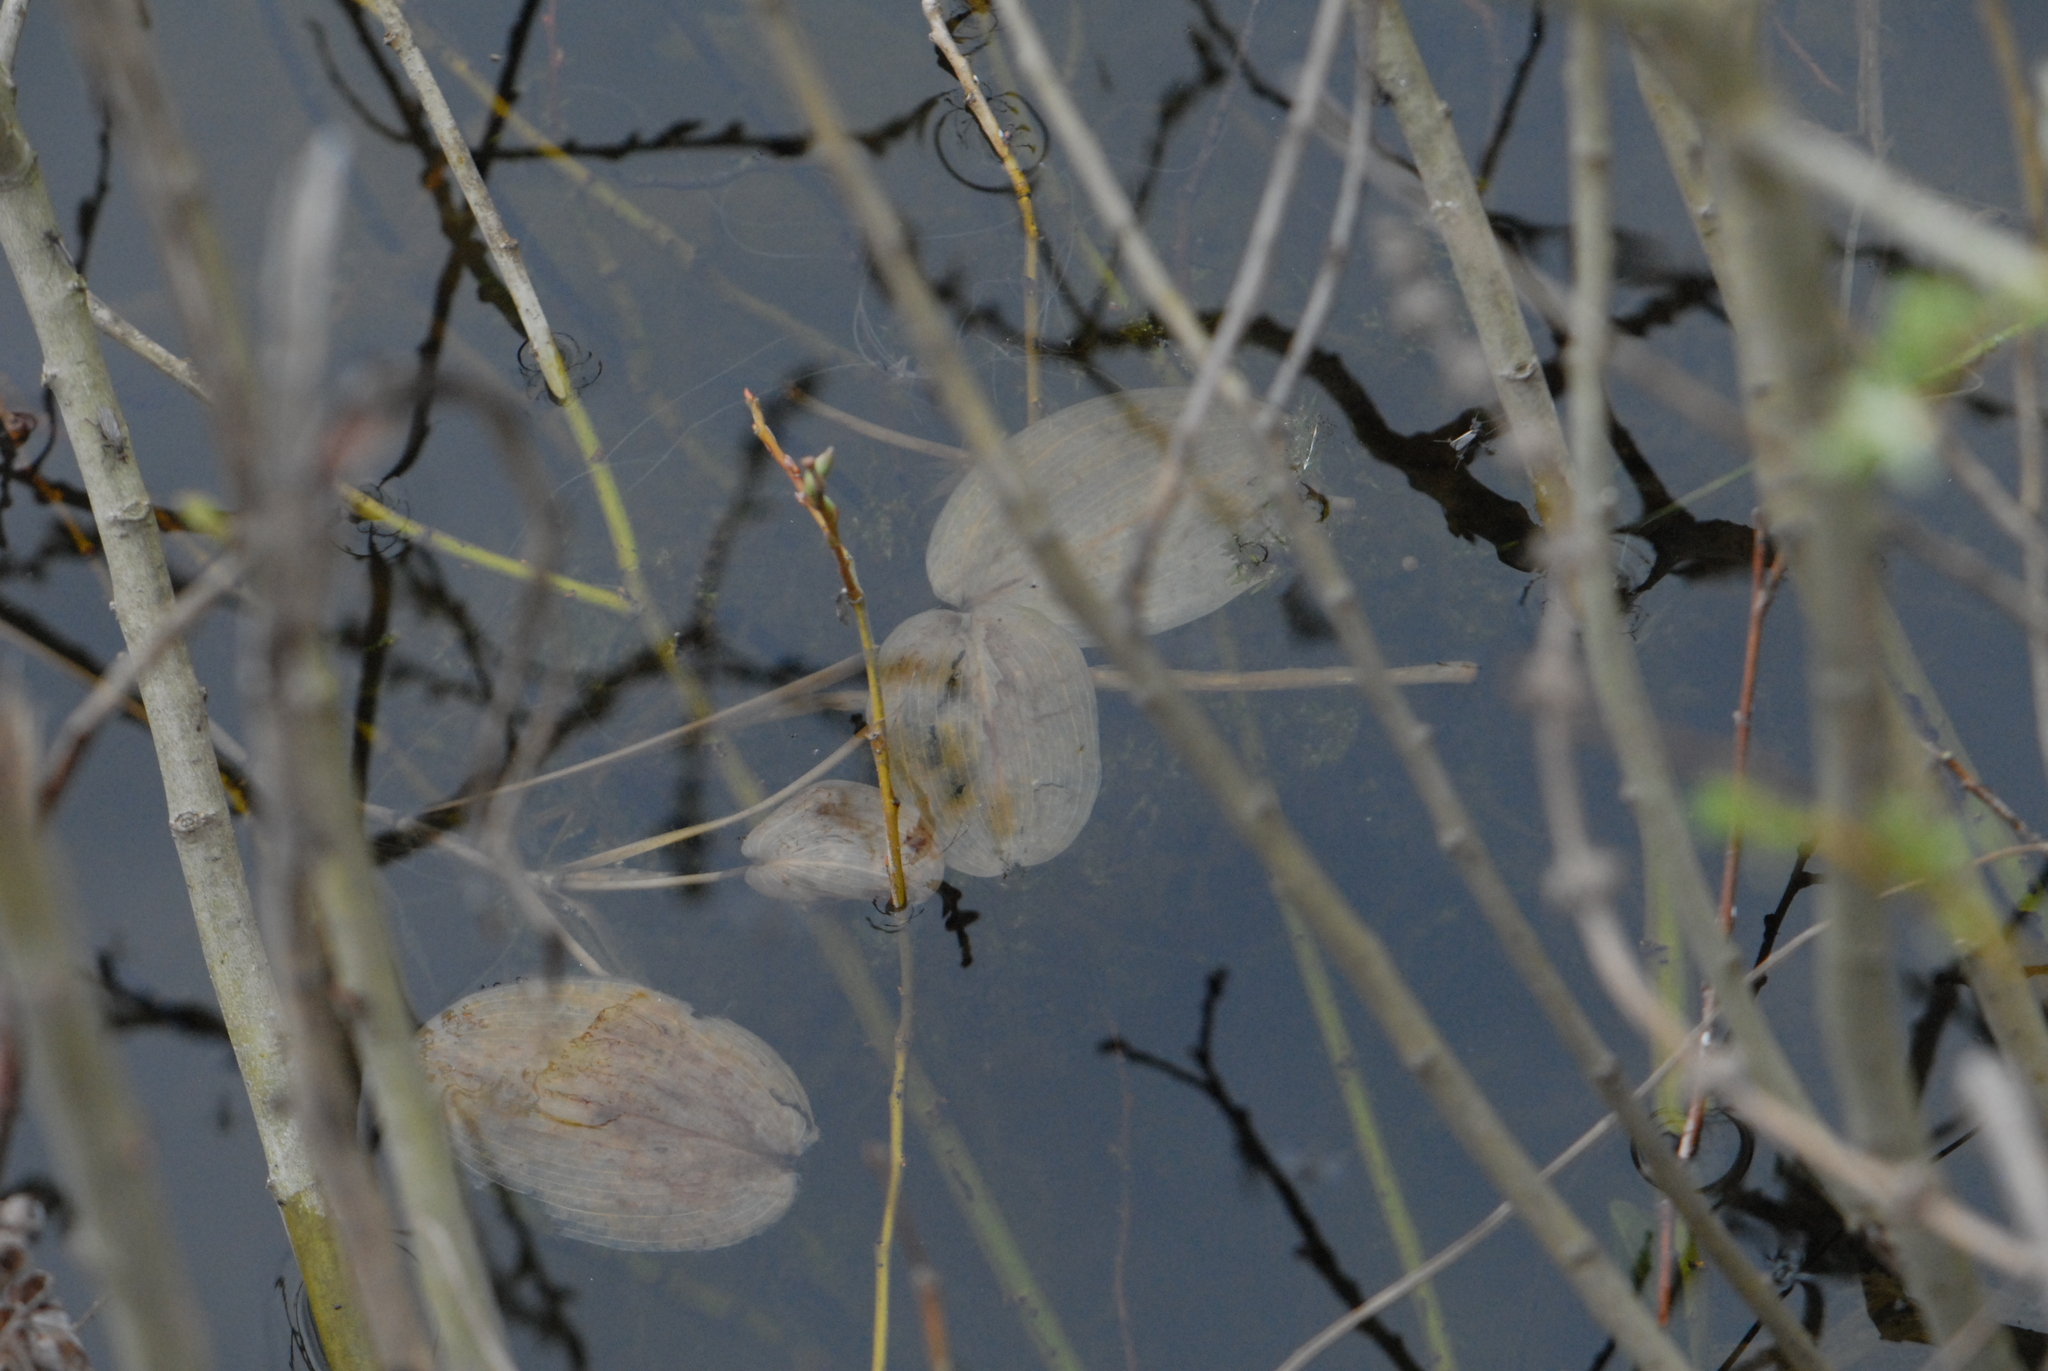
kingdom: Plantae
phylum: Tracheophyta
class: Liliopsida
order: Alismatales
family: Potamogetonaceae
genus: Potamogeton
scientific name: Potamogeton natans
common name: Broad-leaved pondweed
